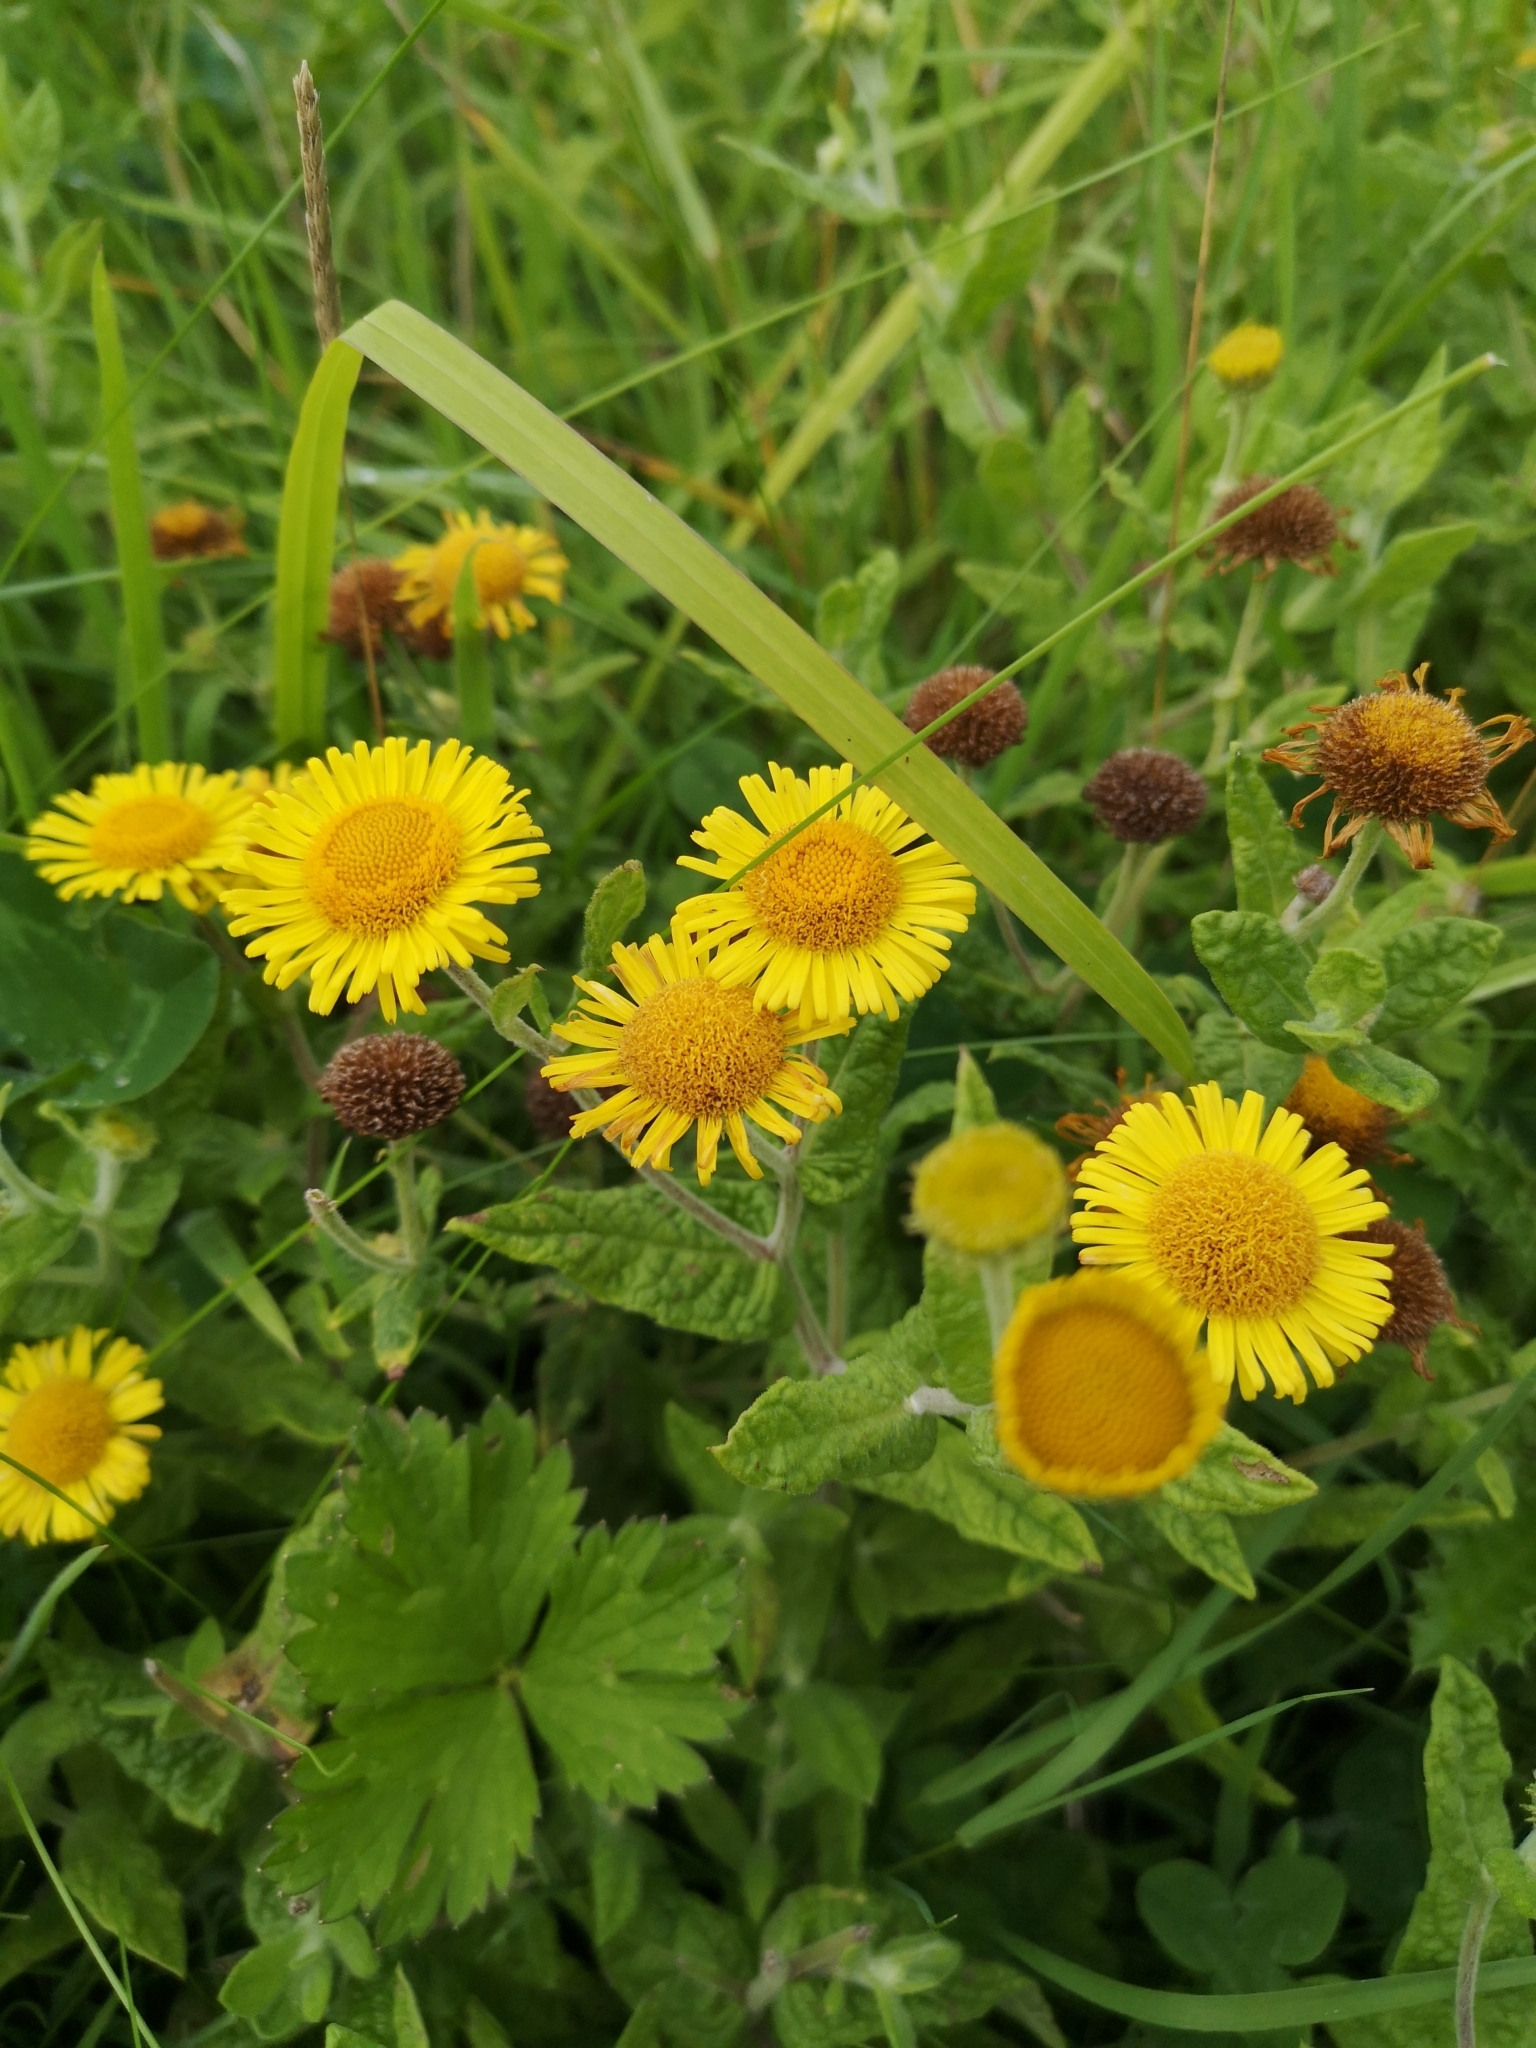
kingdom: Plantae
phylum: Tracheophyta
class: Magnoliopsida
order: Asterales
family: Asteraceae
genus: Pulicaria
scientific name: Pulicaria dysenterica
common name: Common fleabane
